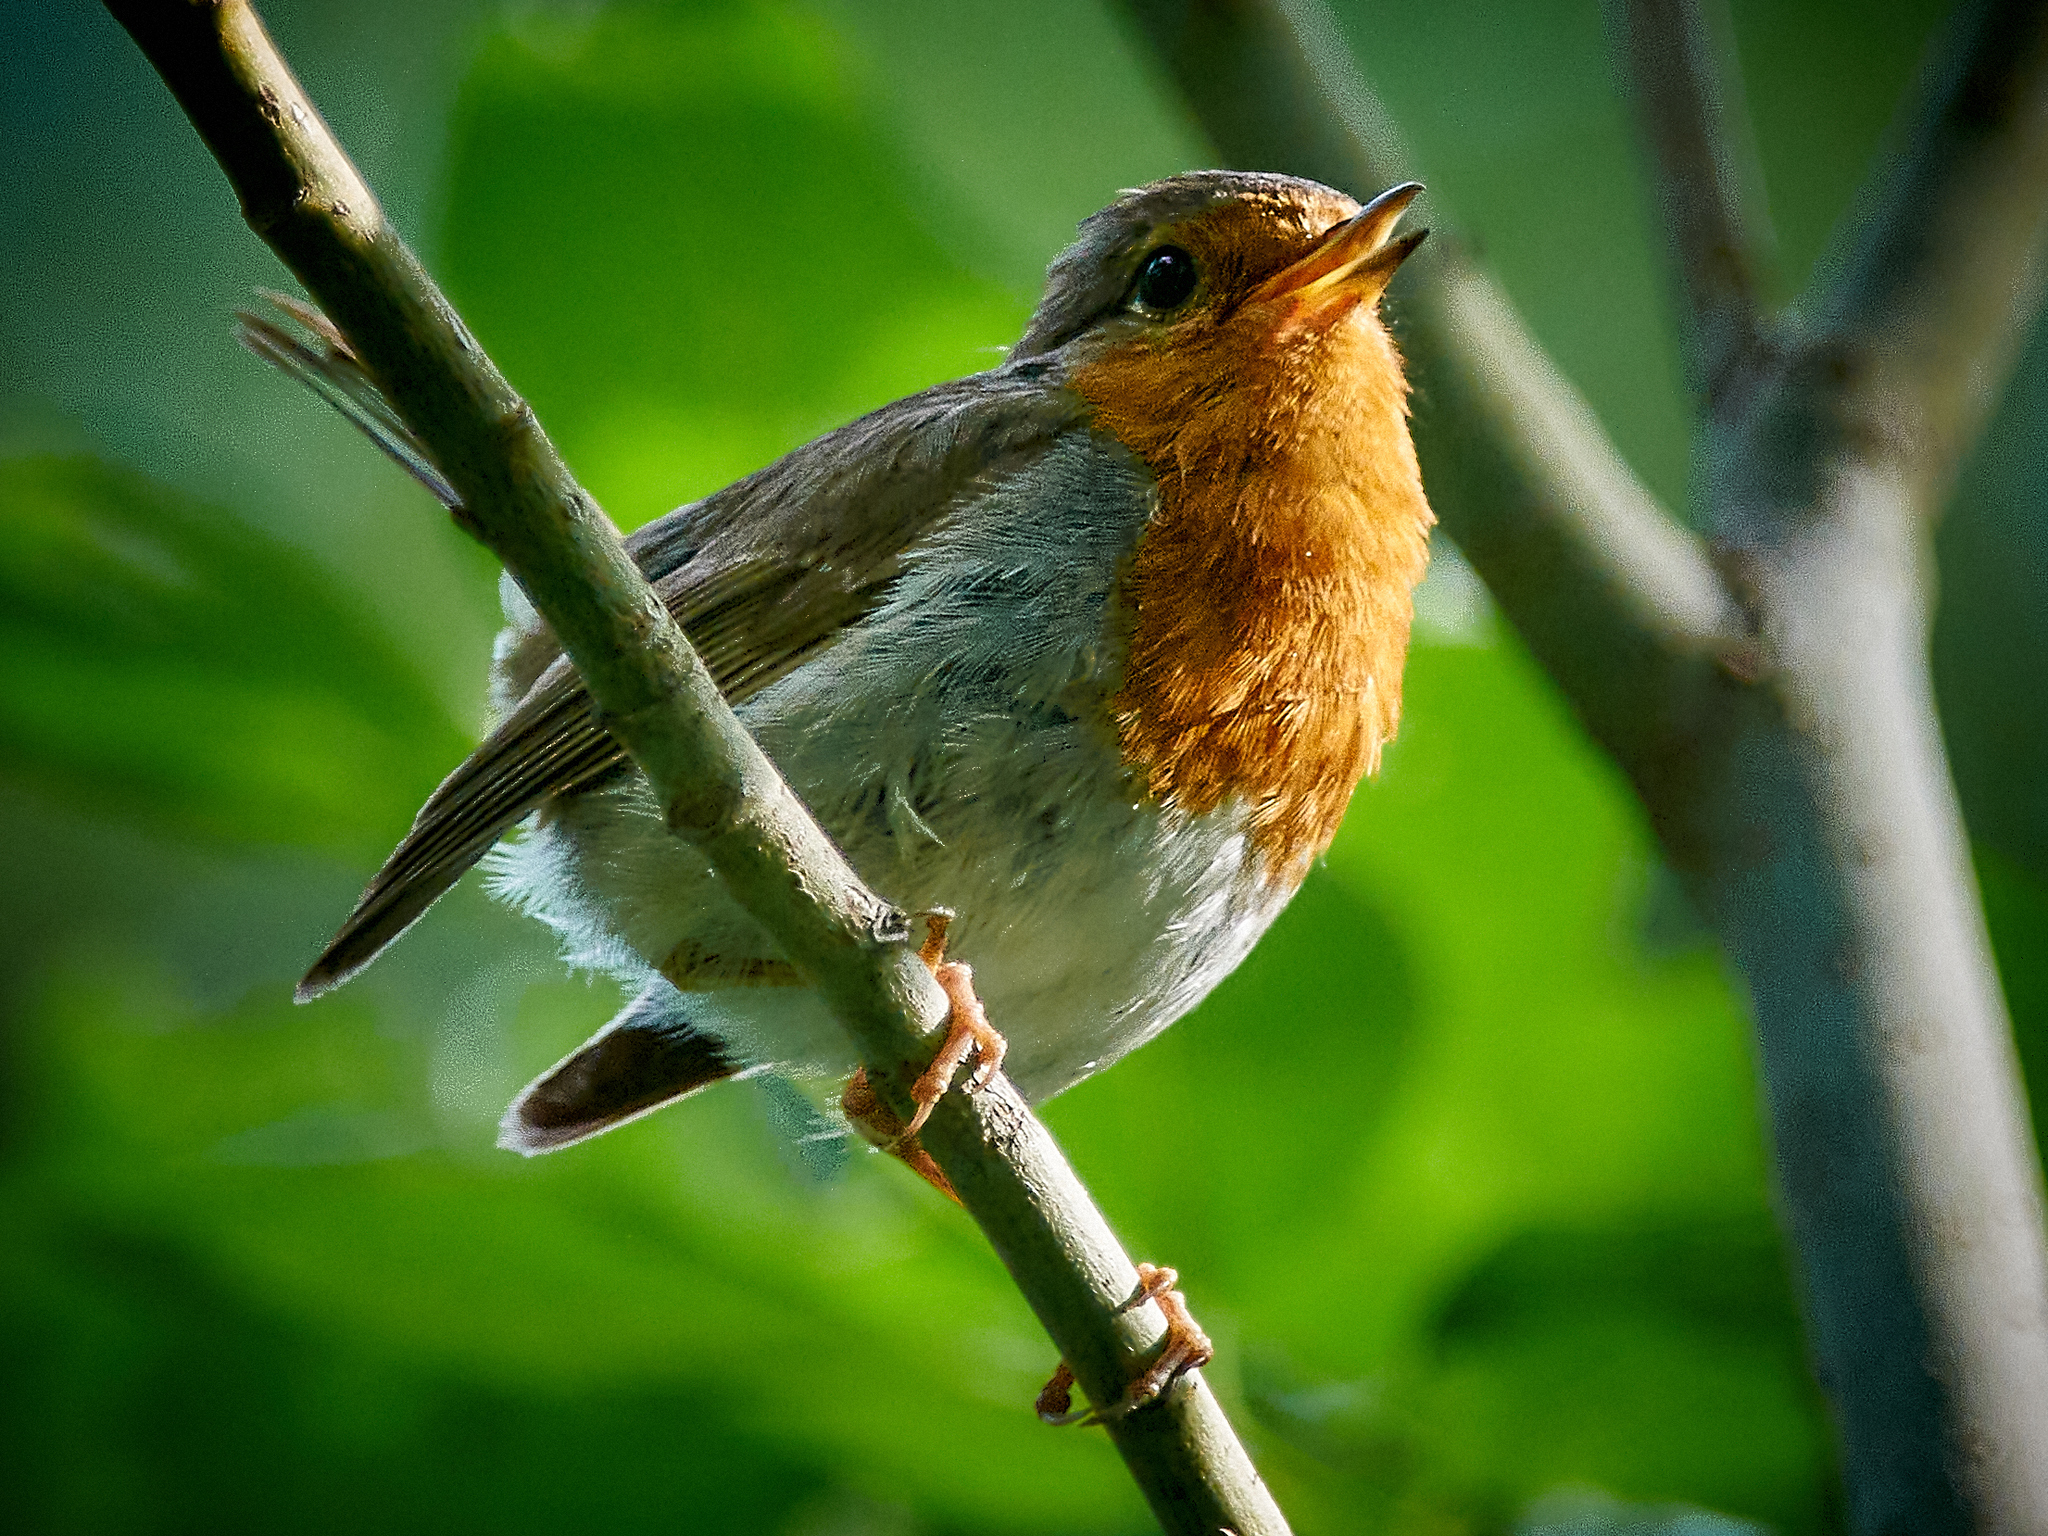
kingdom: Animalia
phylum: Chordata
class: Aves
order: Passeriformes
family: Muscicapidae
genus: Erithacus
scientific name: Erithacus rubecula
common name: European robin
